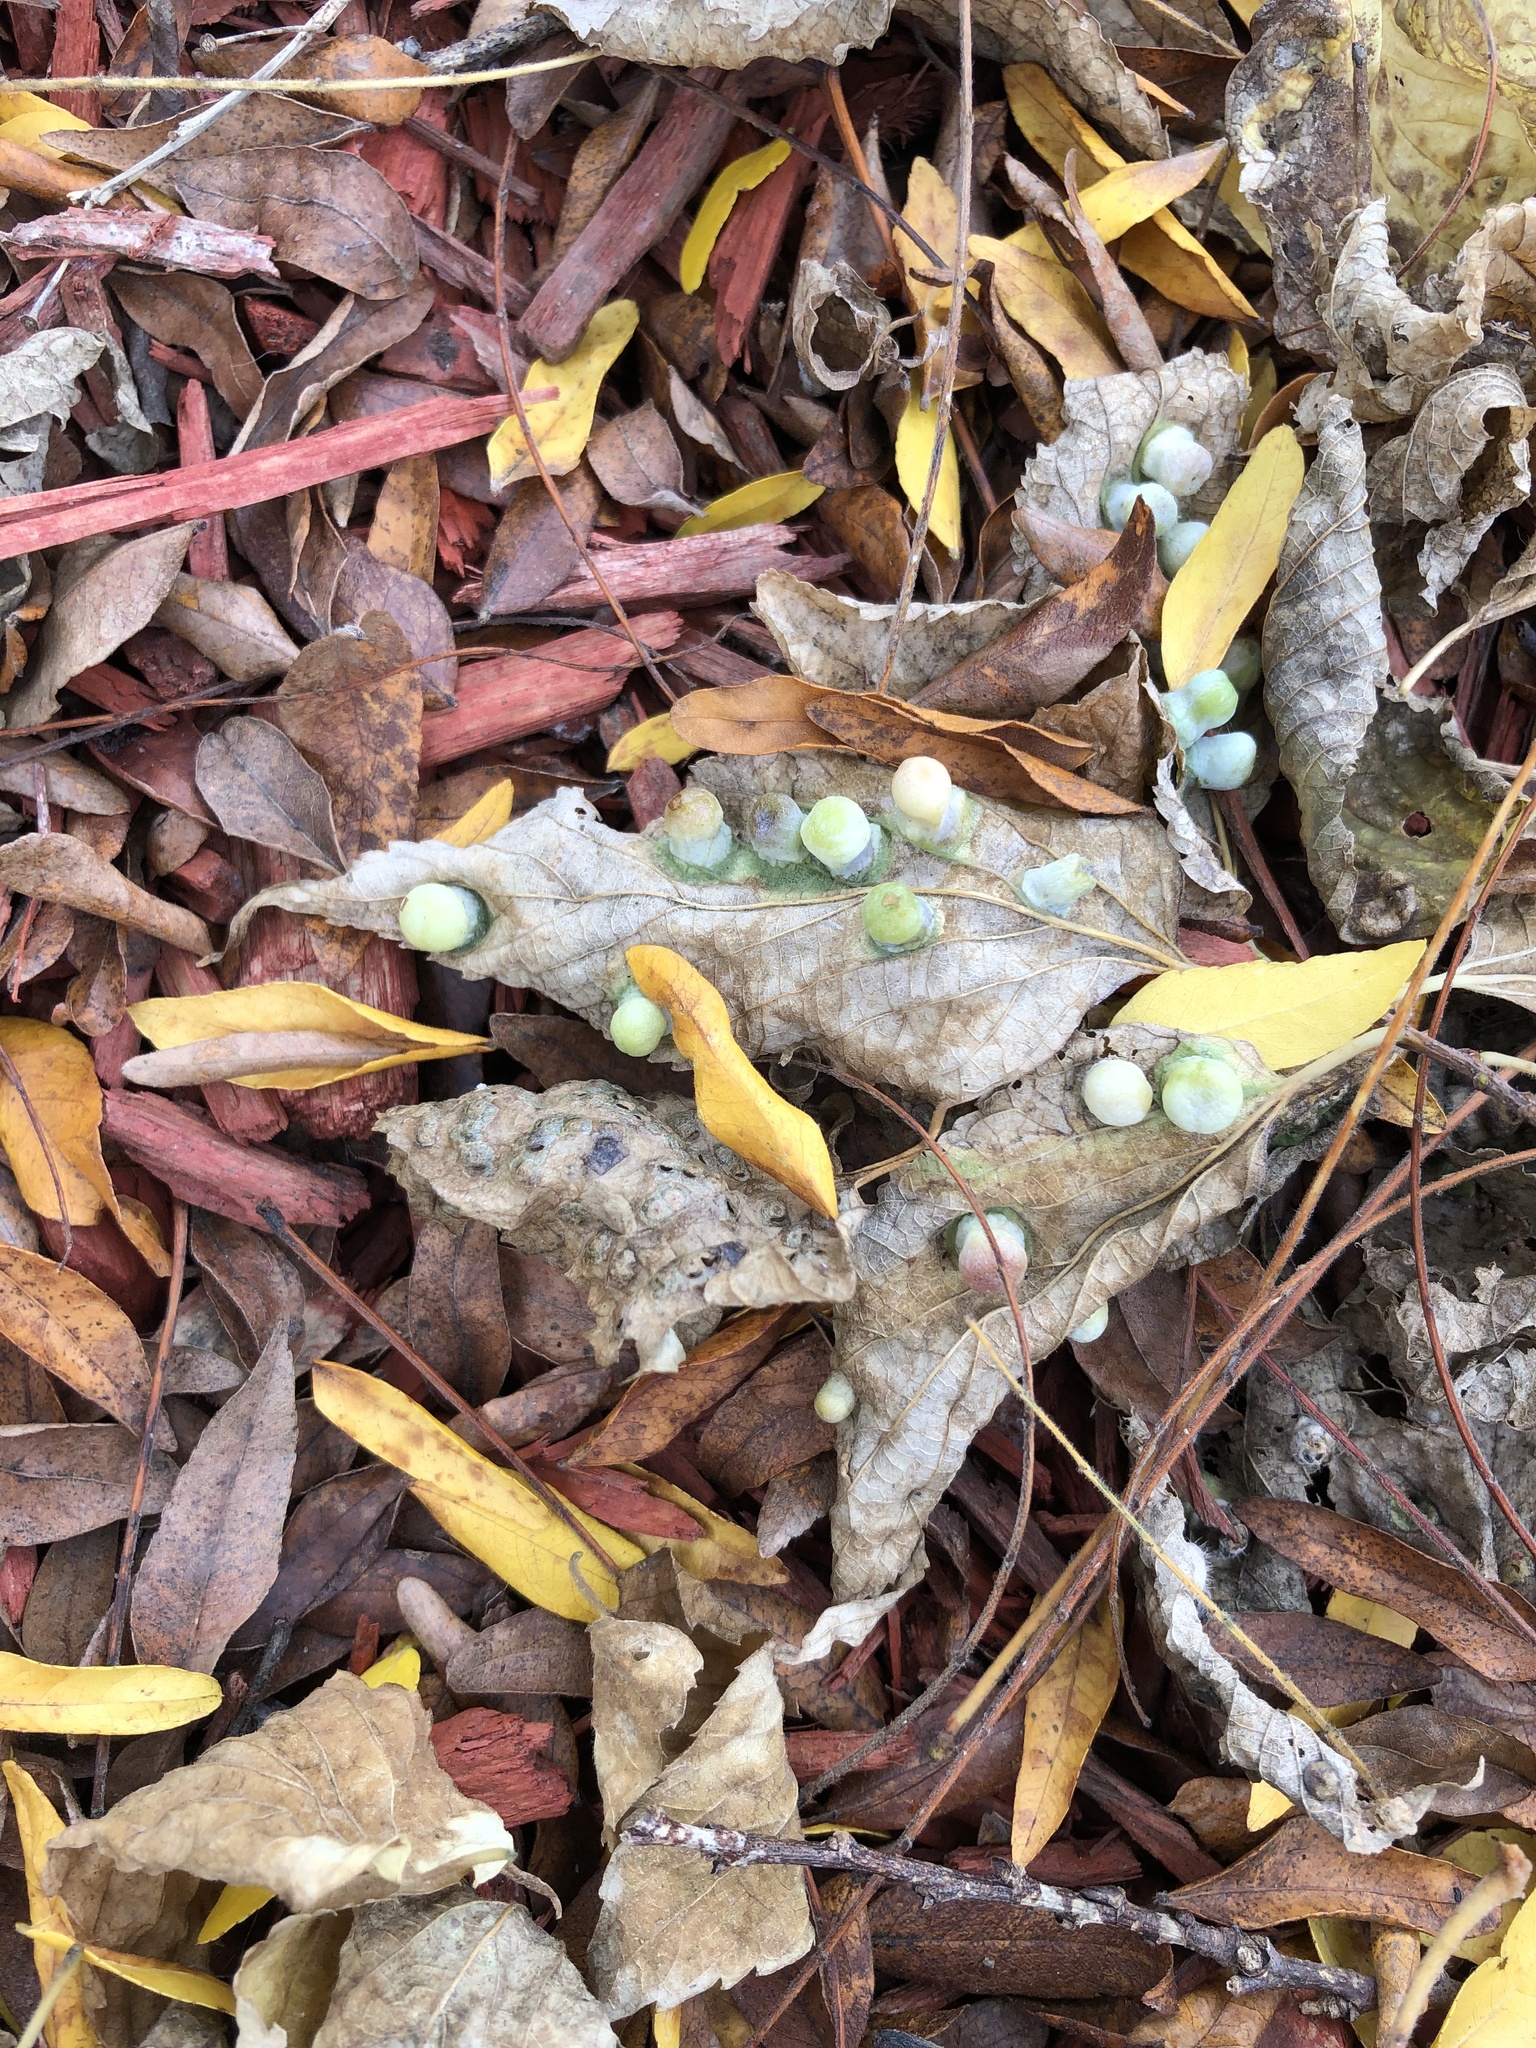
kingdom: Animalia
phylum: Arthropoda
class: Insecta
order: Hemiptera
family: Aphalaridae
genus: Pachypsylla
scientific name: Pachypsylla celtidismamma
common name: Hackberry nipplegall psyllid
